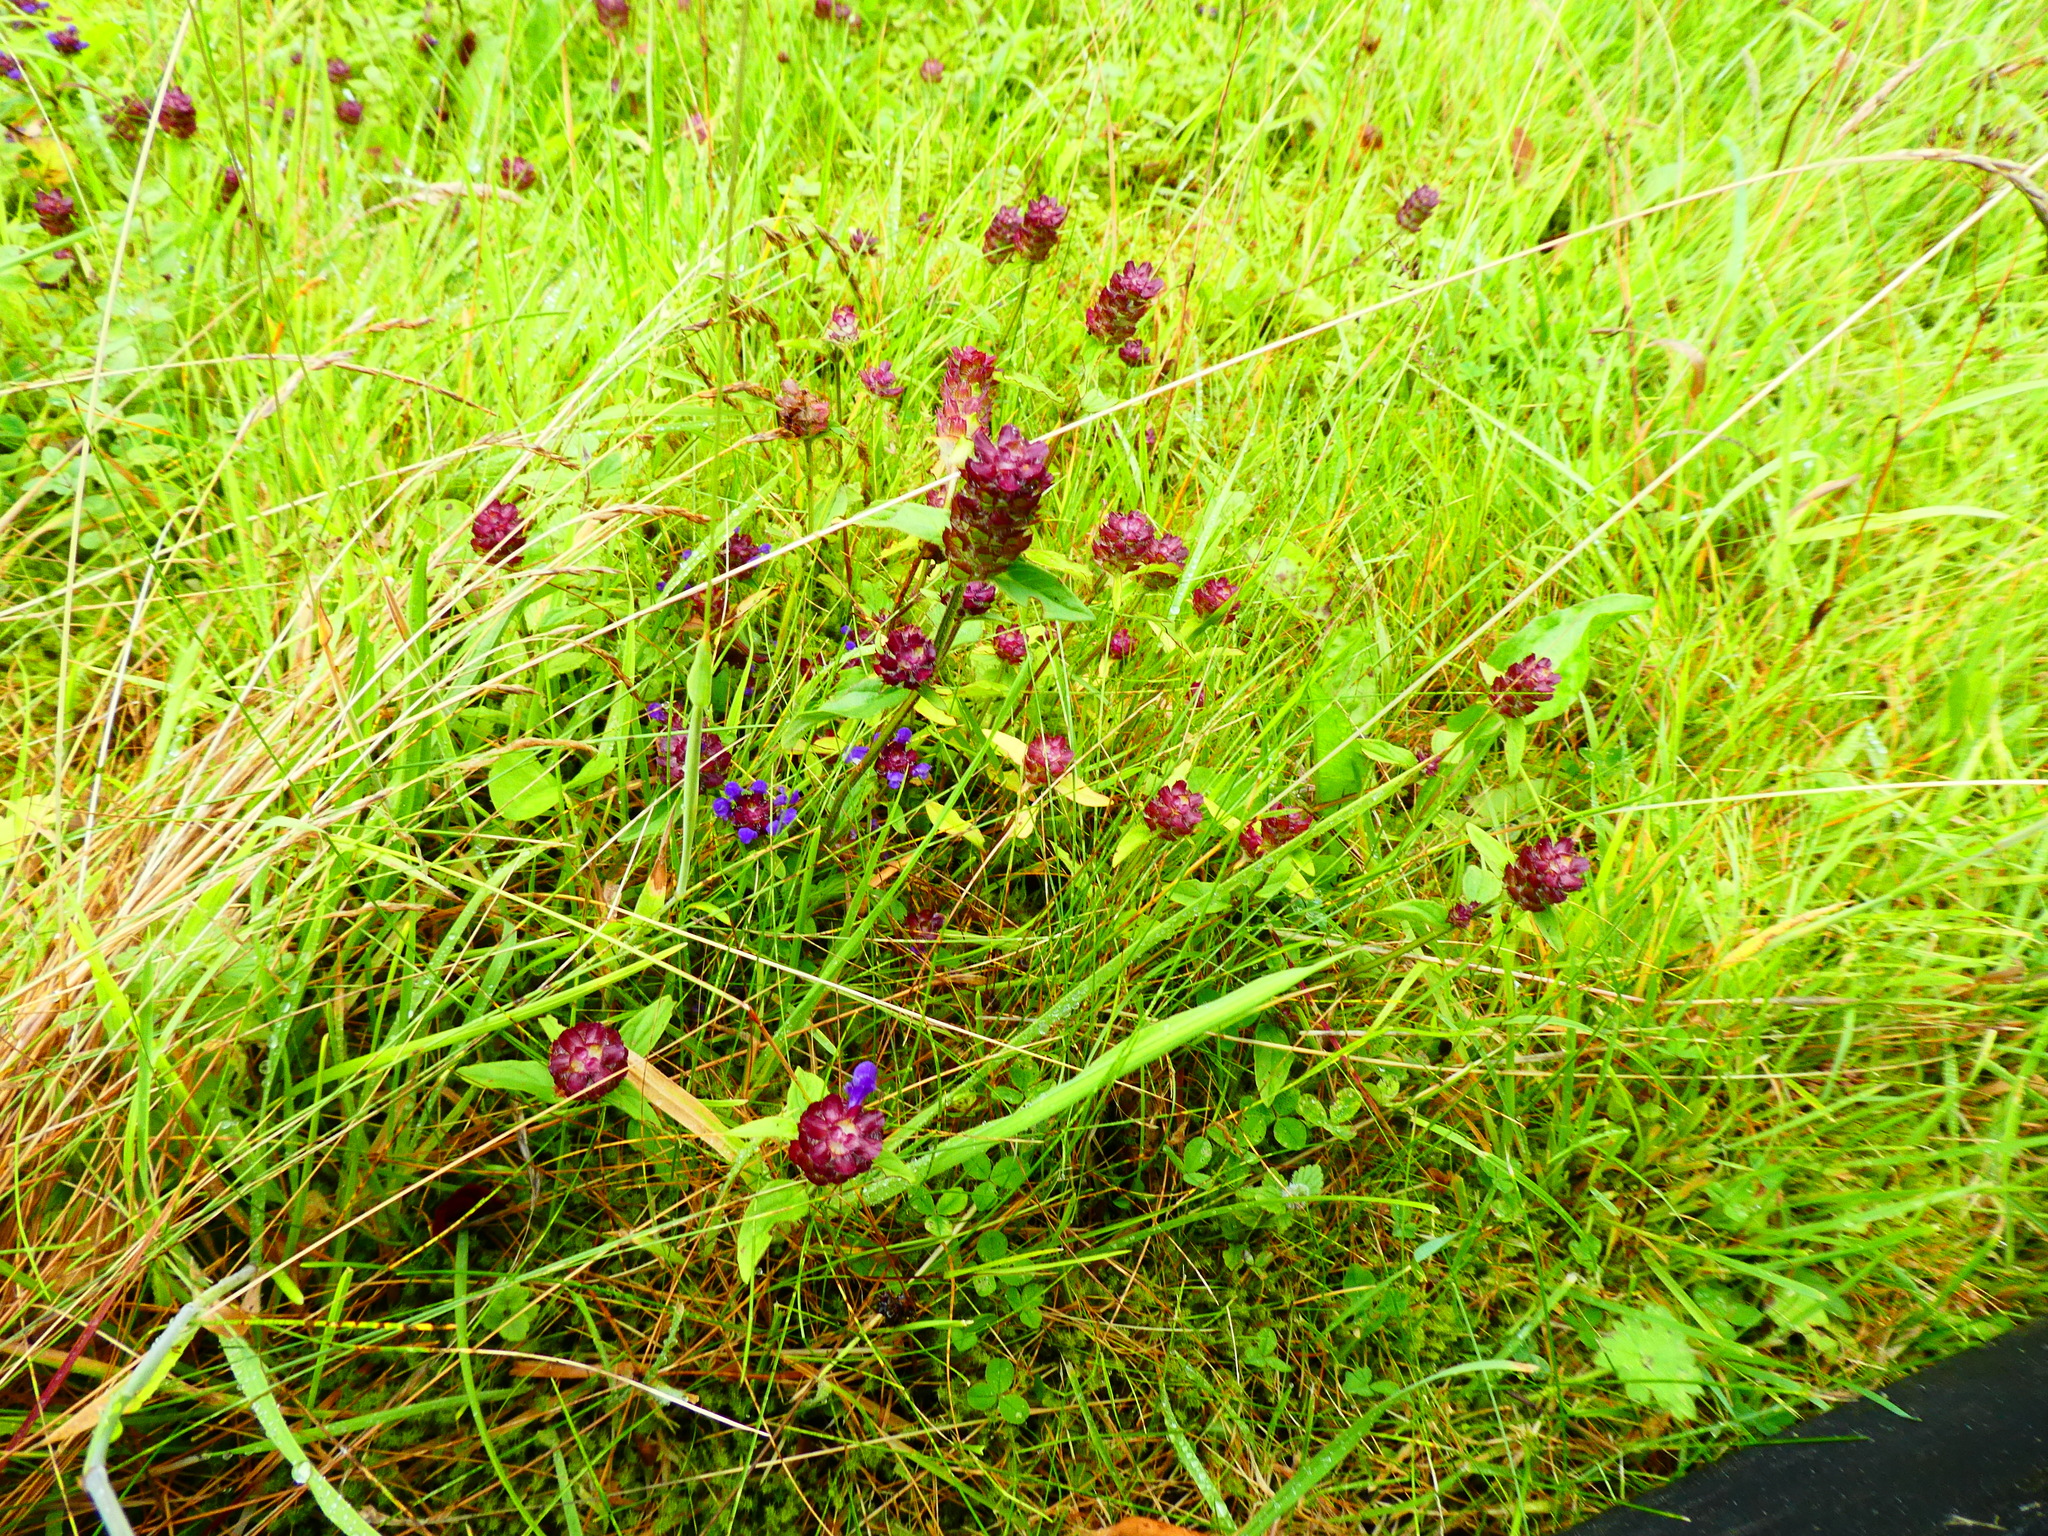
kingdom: Plantae
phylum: Tracheophyta
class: Magnoliopsida
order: Lamiales
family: Lamiaceae
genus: Prunella
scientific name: Prunella vulgaris
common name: Heal-all
